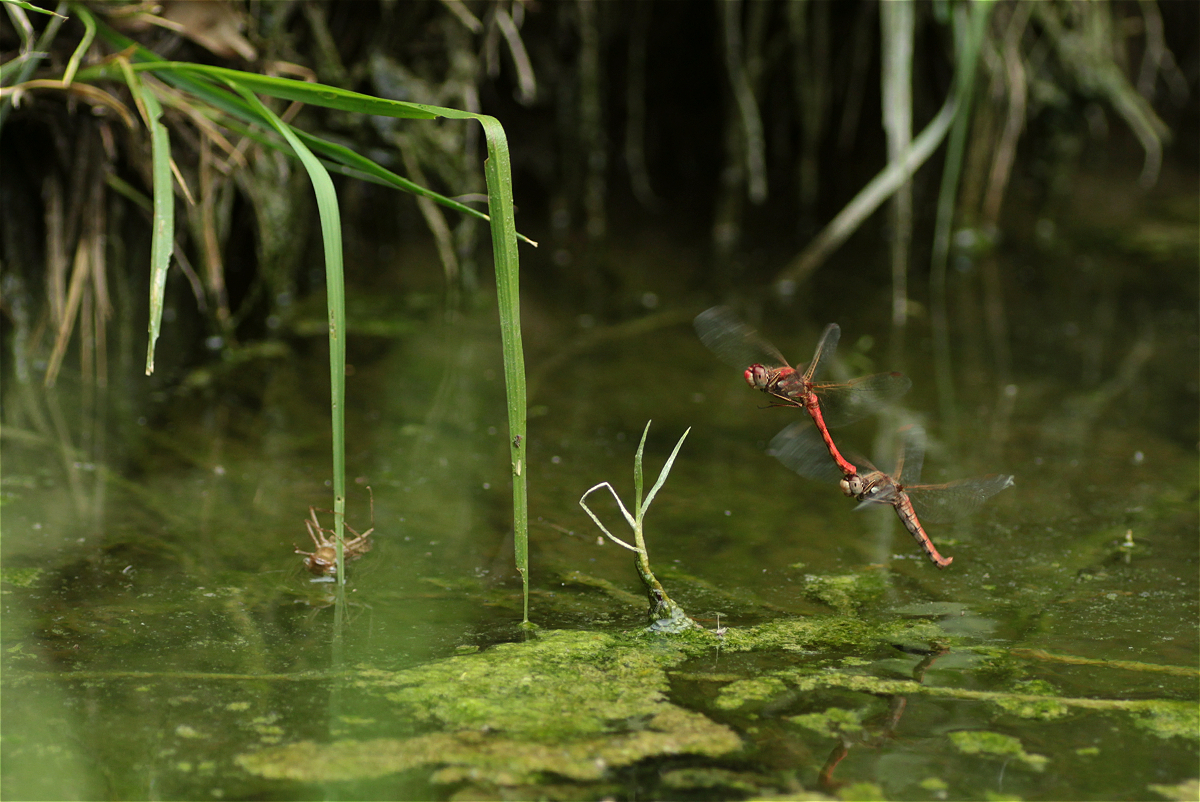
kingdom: Animalia
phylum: Arthropoda
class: Insecta
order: Odonata
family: Libellulidae
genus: Sympetrum
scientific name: Sympetrum gilvum
